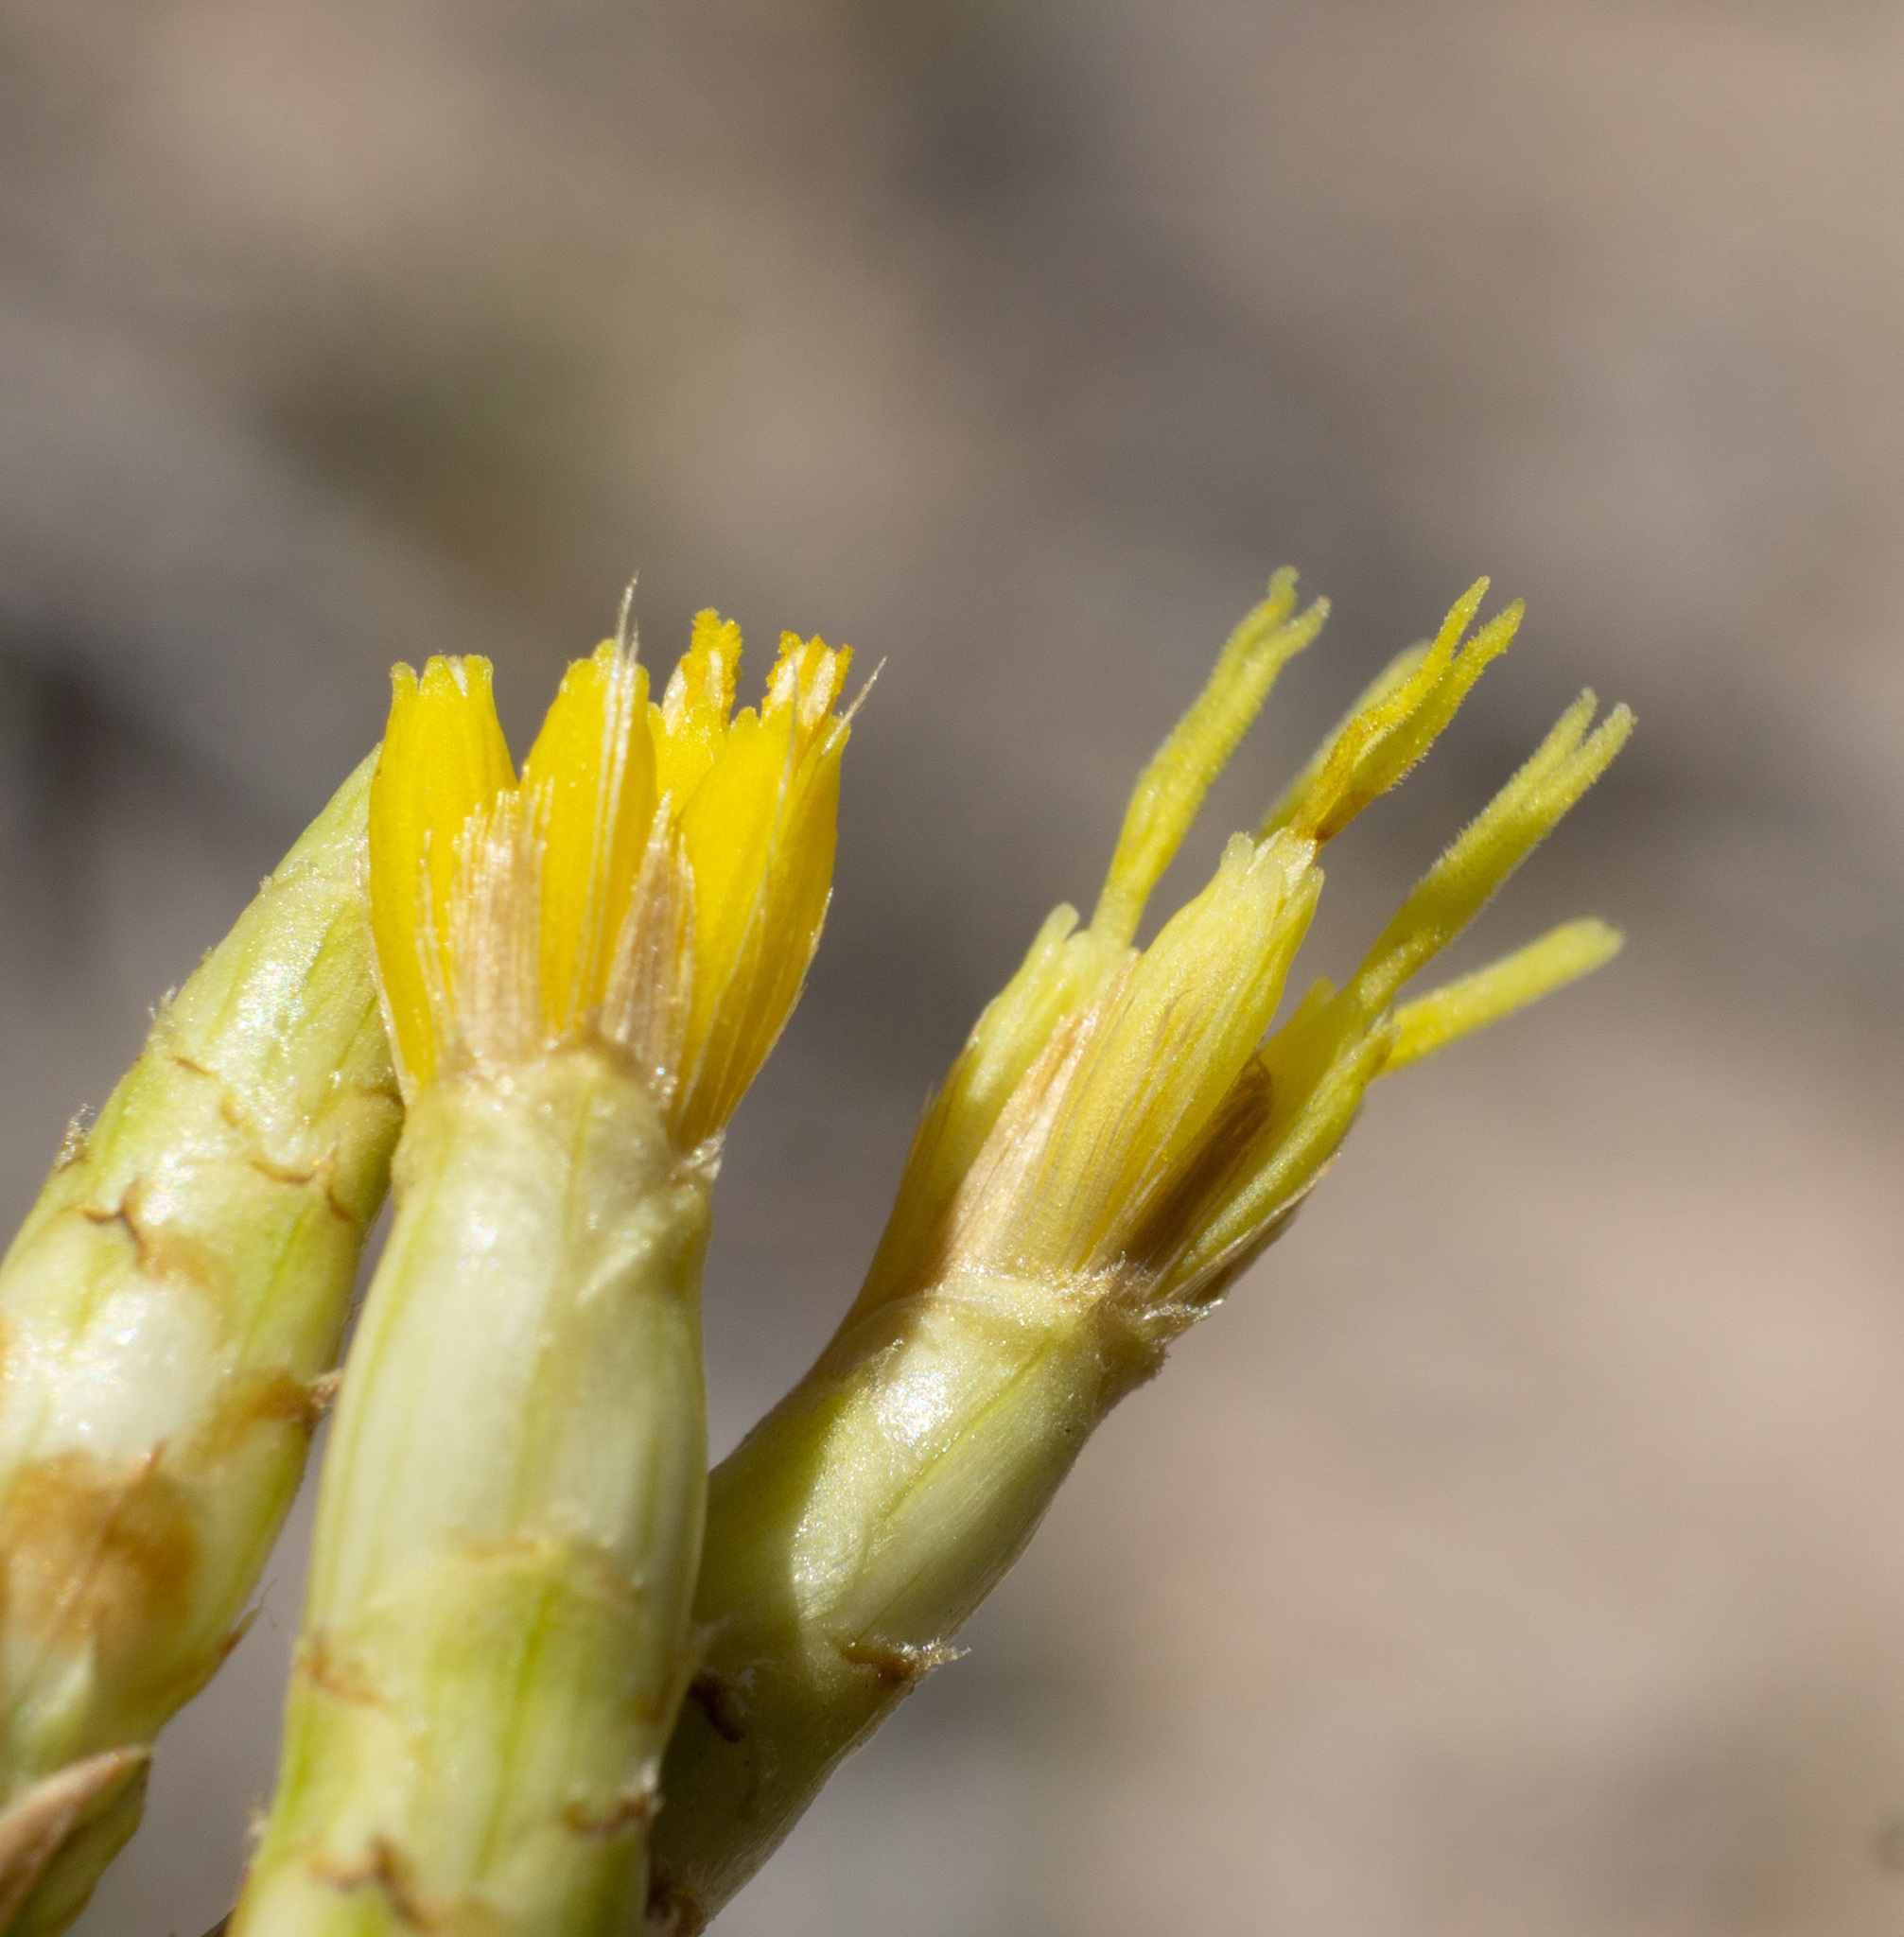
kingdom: Plantae
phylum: Tracheophyta
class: Magnoliopsida
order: Asterales
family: Asteraceae
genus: Cuniculotinus
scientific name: Cuniculotinus gramineus
